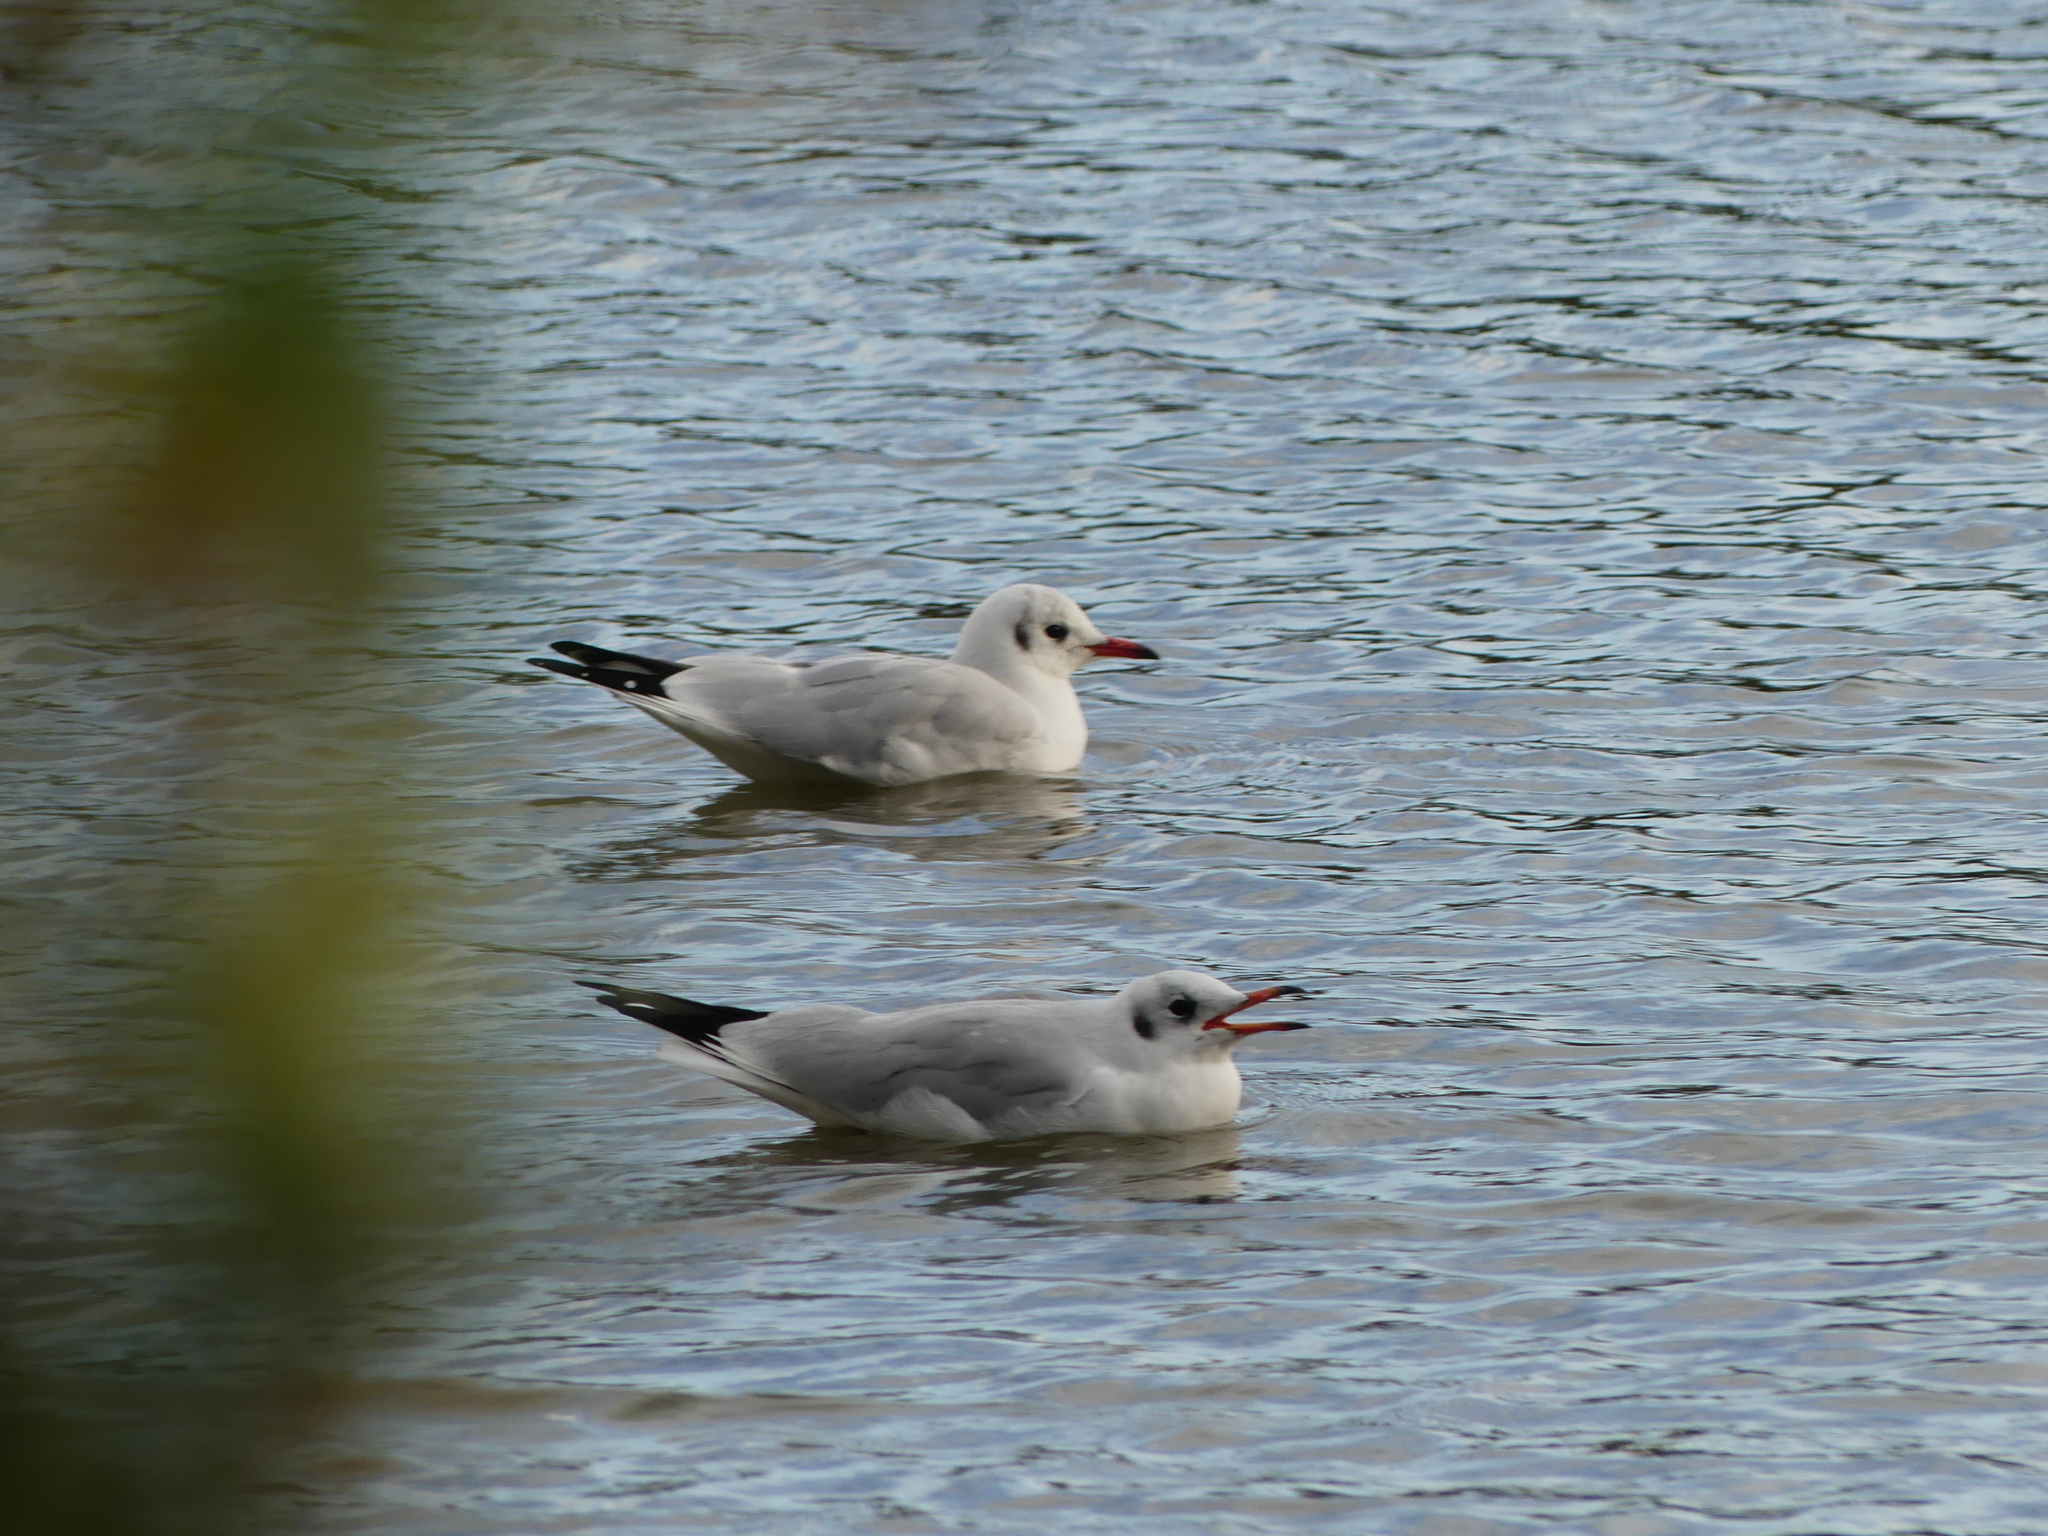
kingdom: Animalia
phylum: Chordata
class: Aves
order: Charadriiformes
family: Laridae
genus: Chroicocephalus
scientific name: Chroicocephalus ridibundus
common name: Black-headed gull
